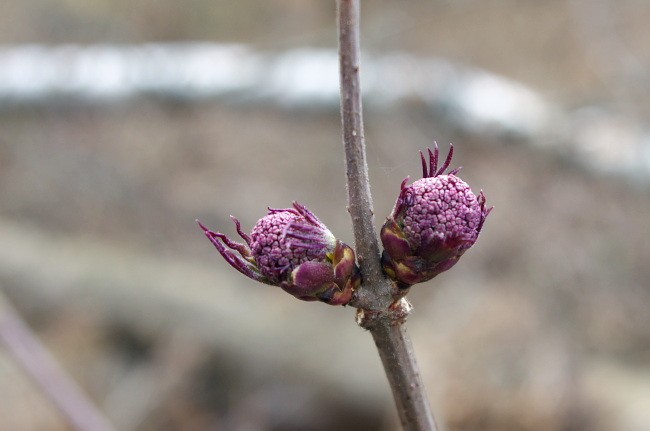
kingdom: Plantae
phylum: Tracheophyta
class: Magnoliopsida
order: Dipsacales
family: Viburnaceae
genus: Sambucus
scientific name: Sambucus racemosa
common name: Red-berried elder
